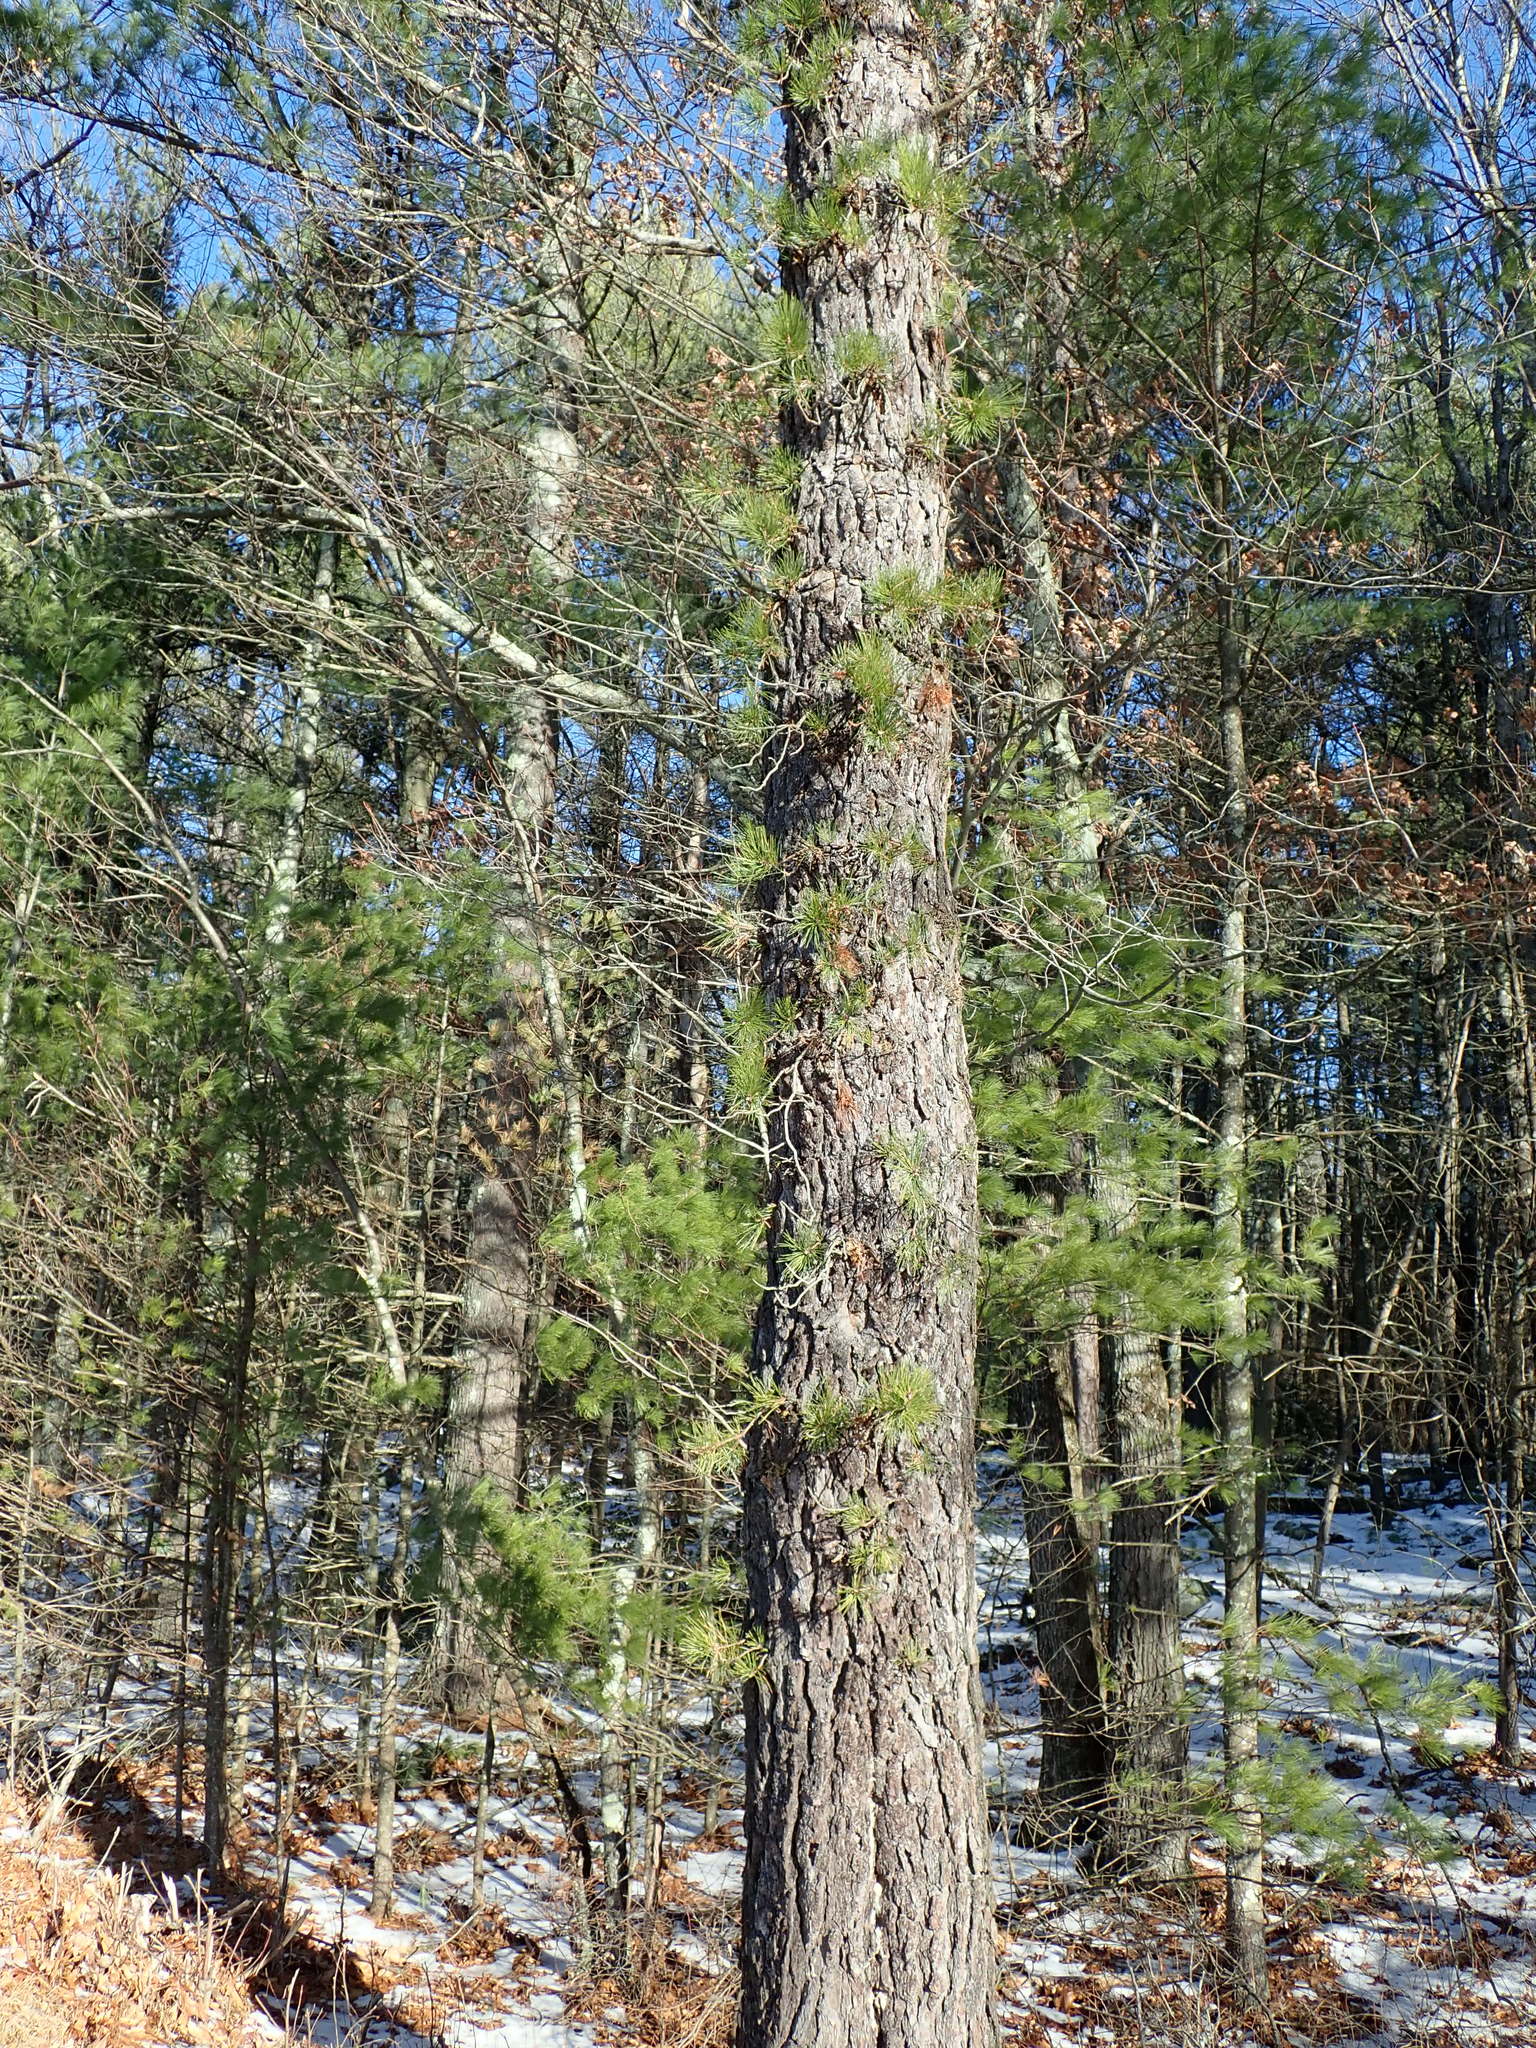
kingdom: Plantae
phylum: Tracheophyta
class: Pinopsida
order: Pinales
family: Pinaceae
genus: Pinus
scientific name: Pinus rigida
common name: Pitch pine
